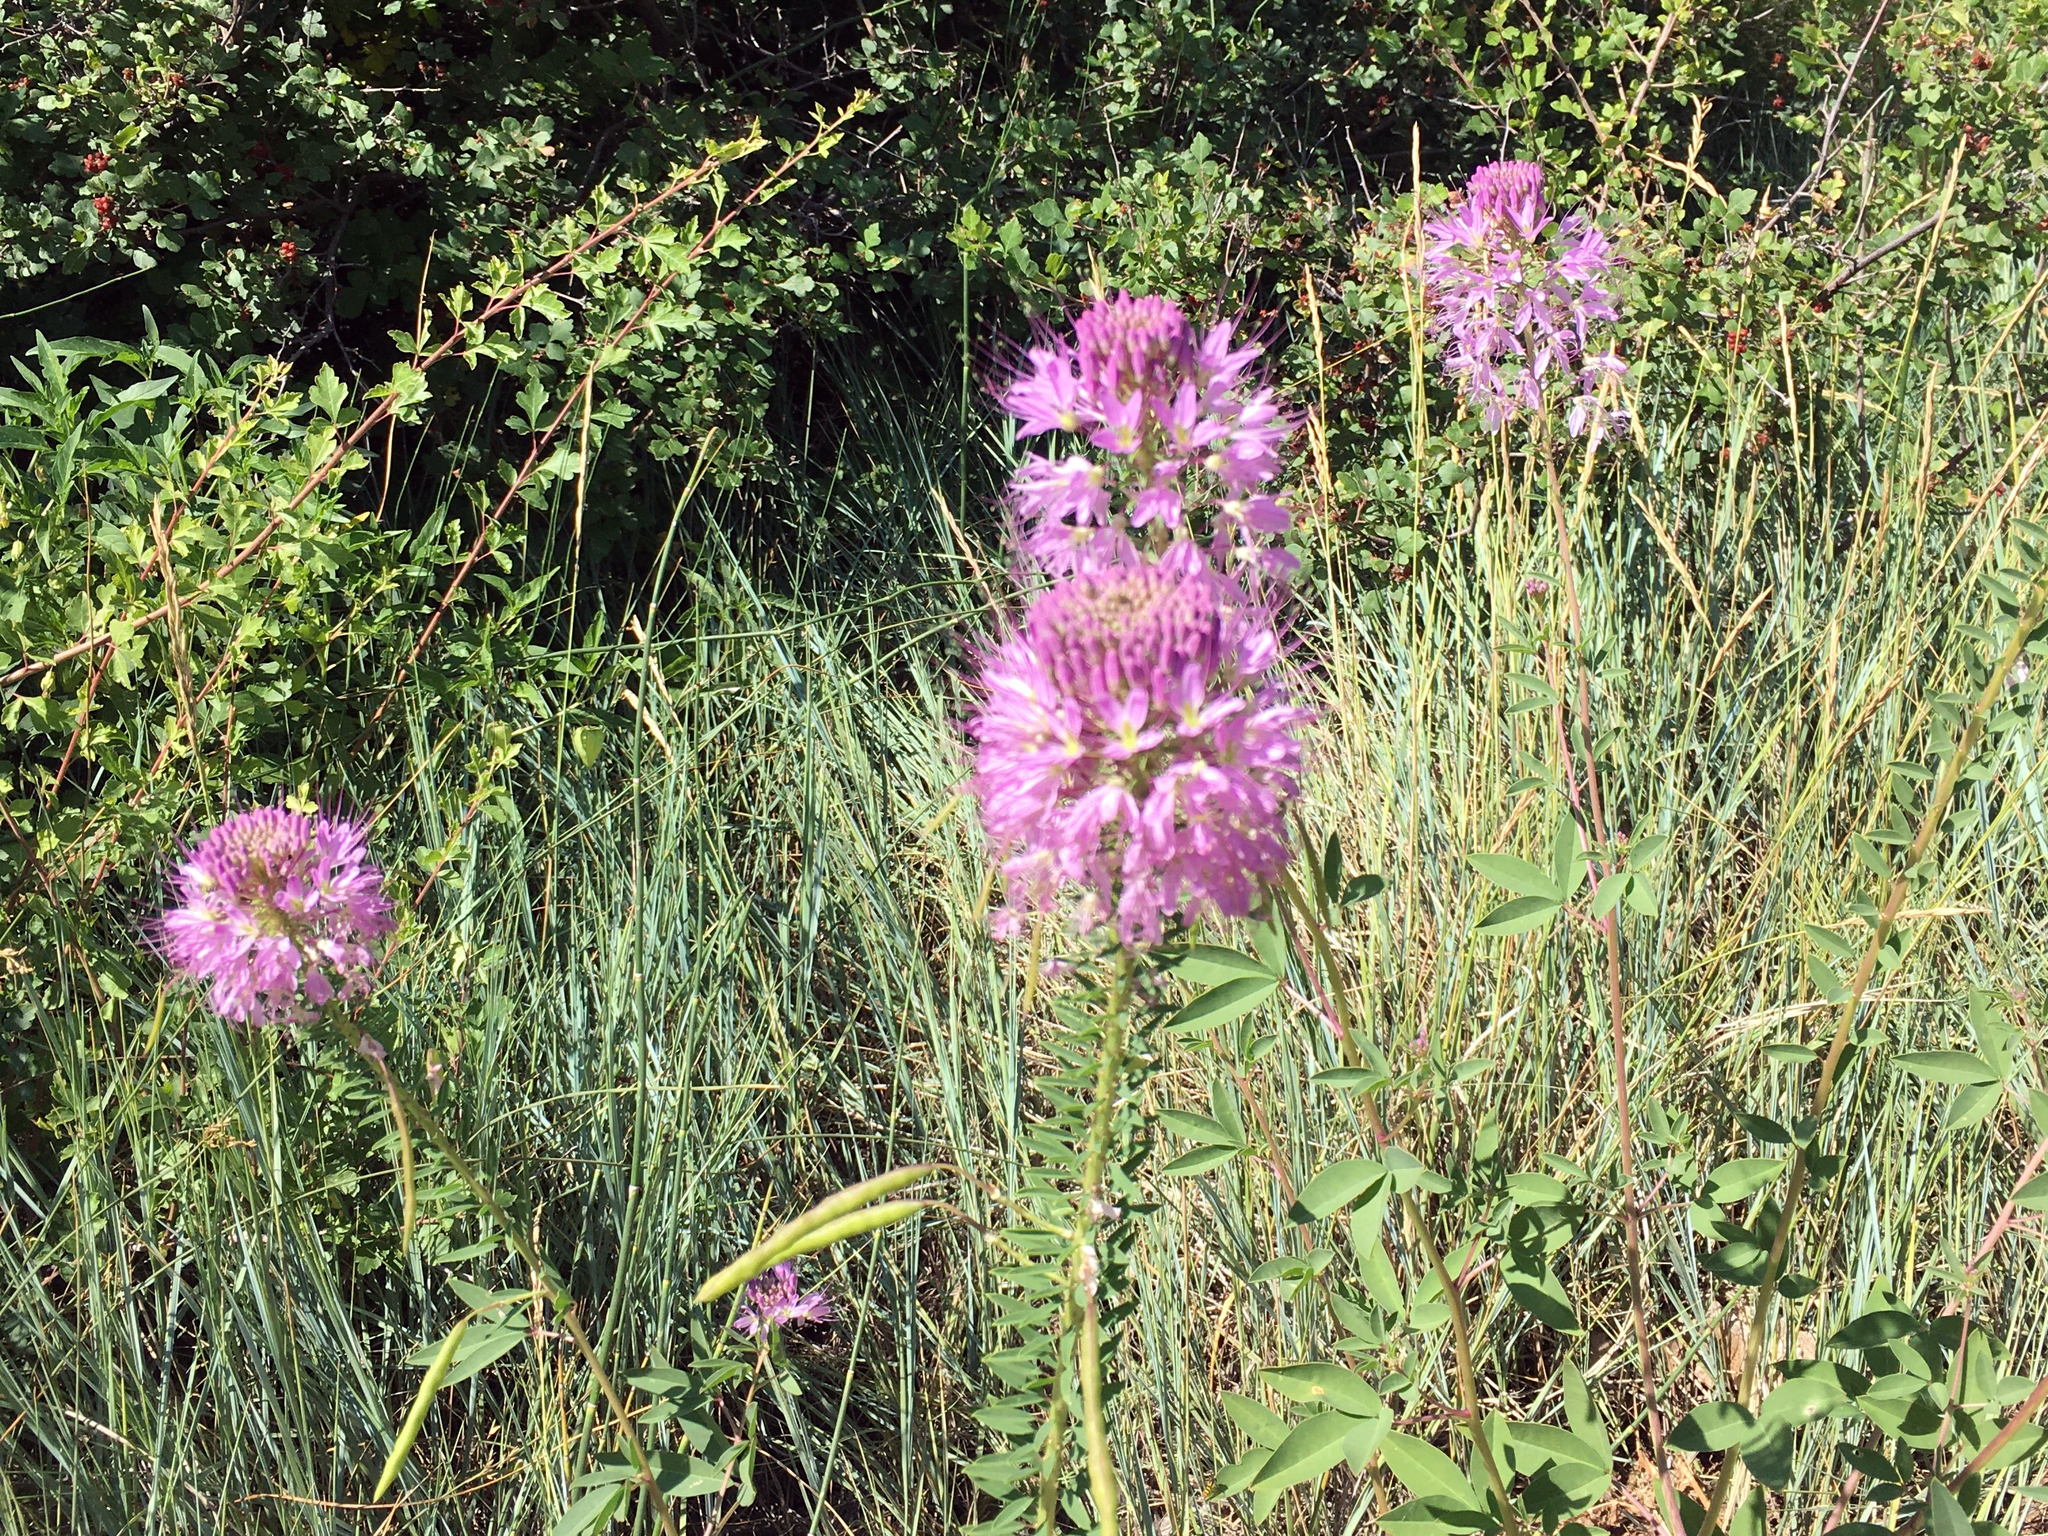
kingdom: Plantae
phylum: Tracheophyta
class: Magnoliopsida
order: Brassicales
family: Cleomaceae
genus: Cleomella
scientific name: Cleomella serrulata
